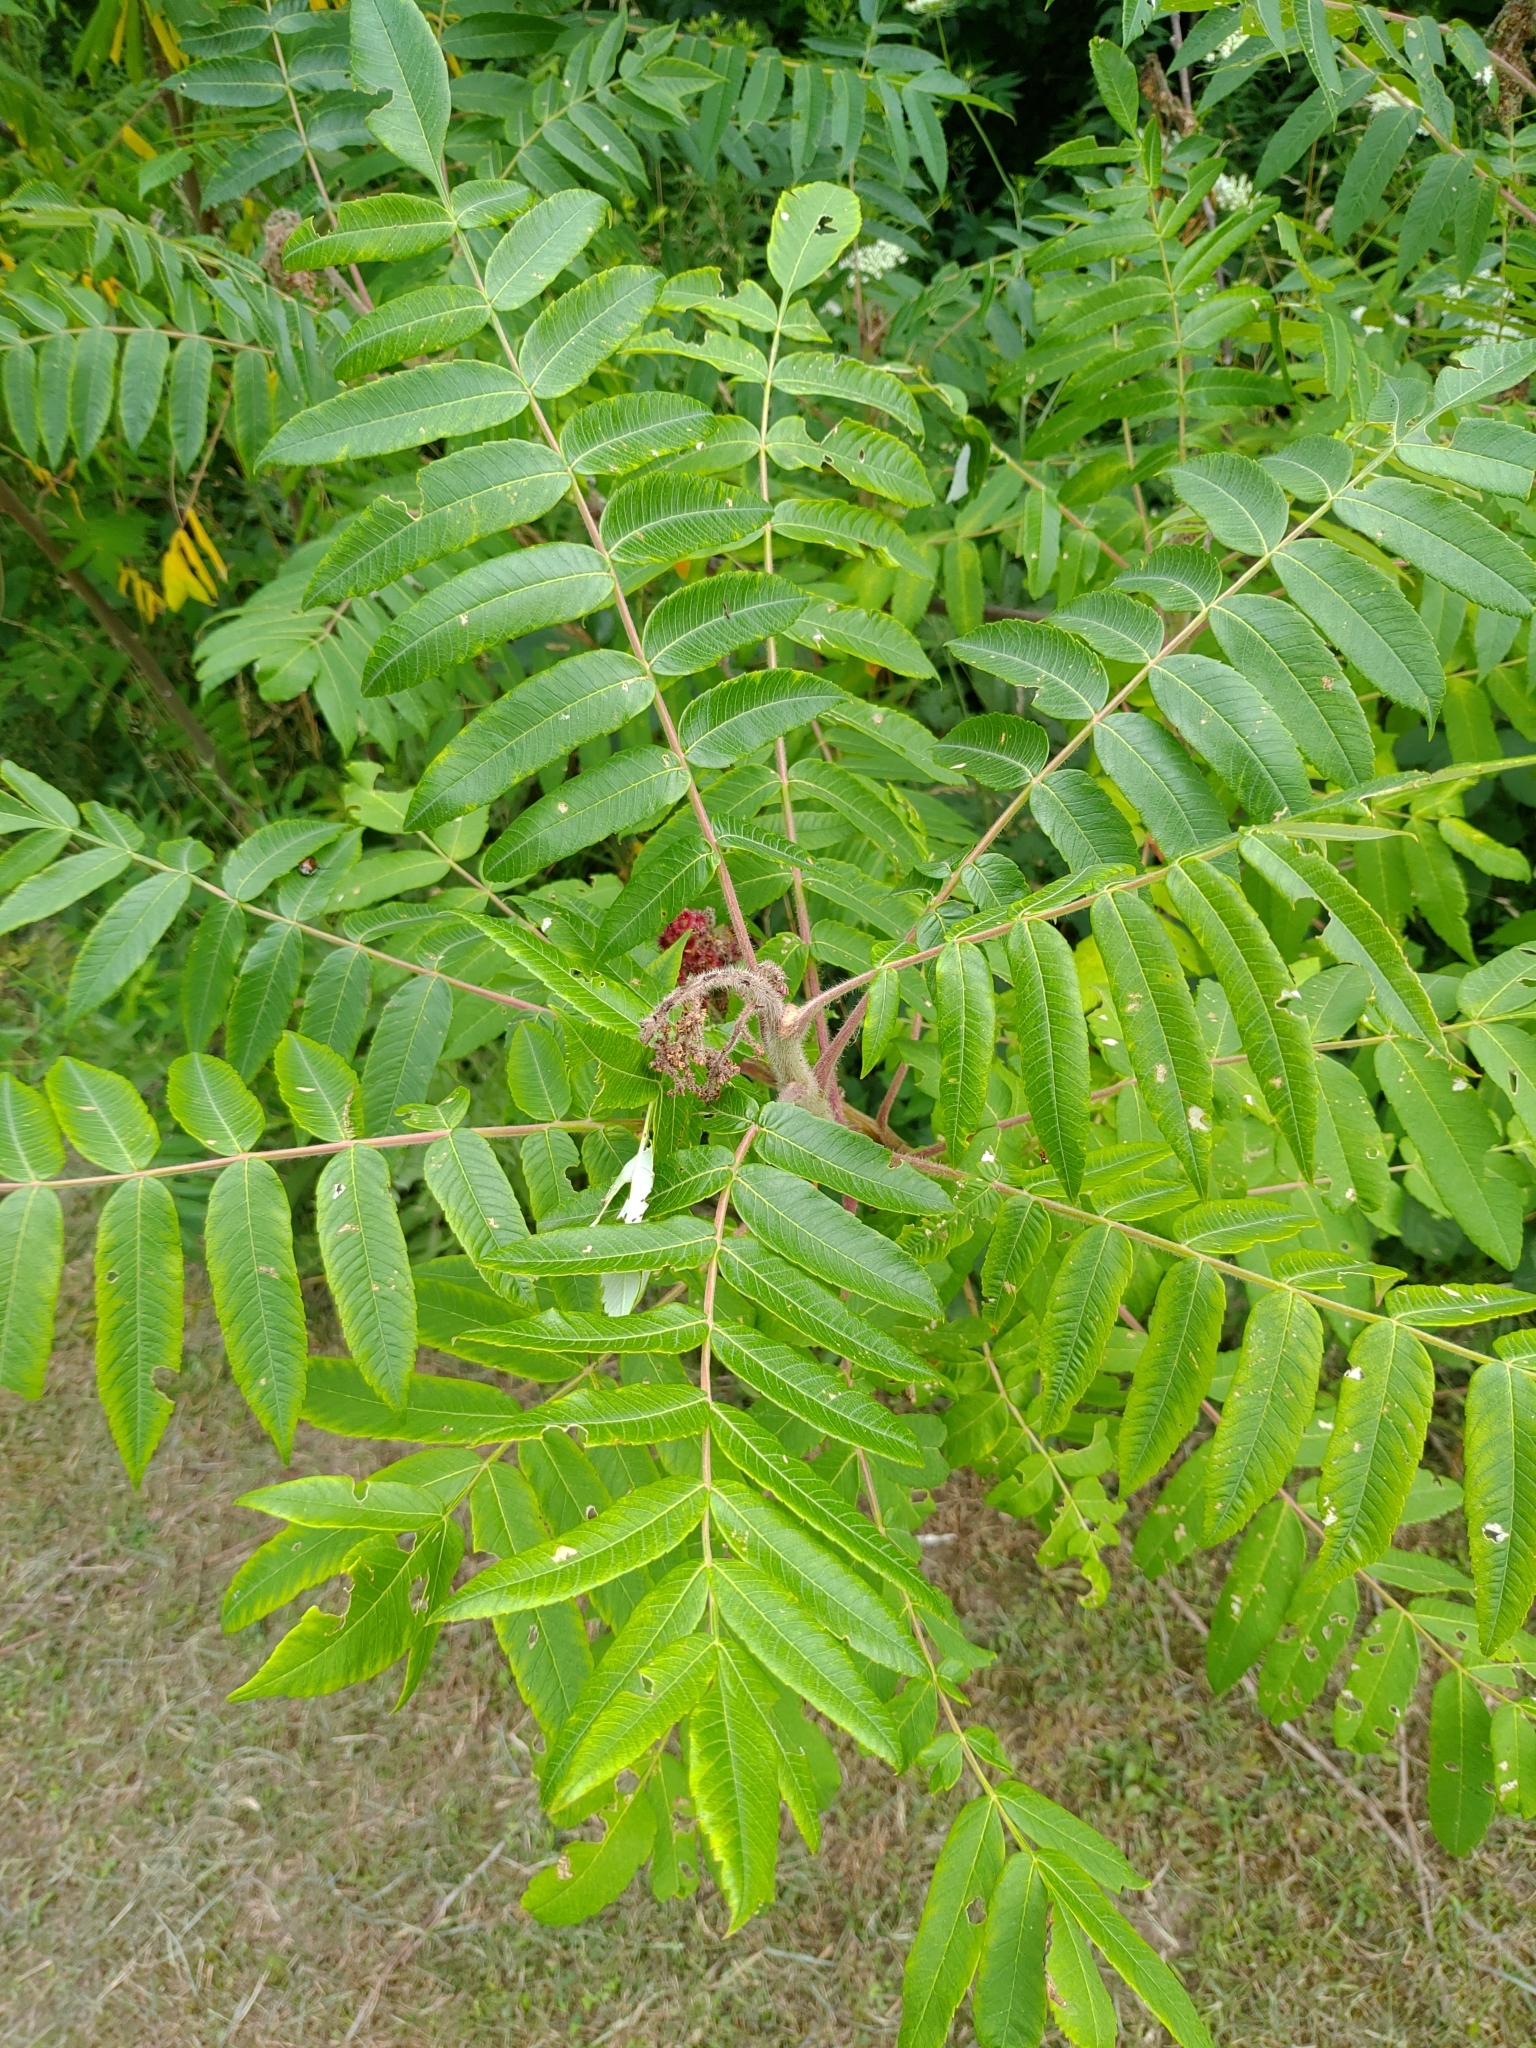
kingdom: Plantae
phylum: Tracheophyta
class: Magnoliopsida
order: Sapindales
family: Anacardiaceae
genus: Rhus
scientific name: Rhus typhina
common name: Staghorn sumac
